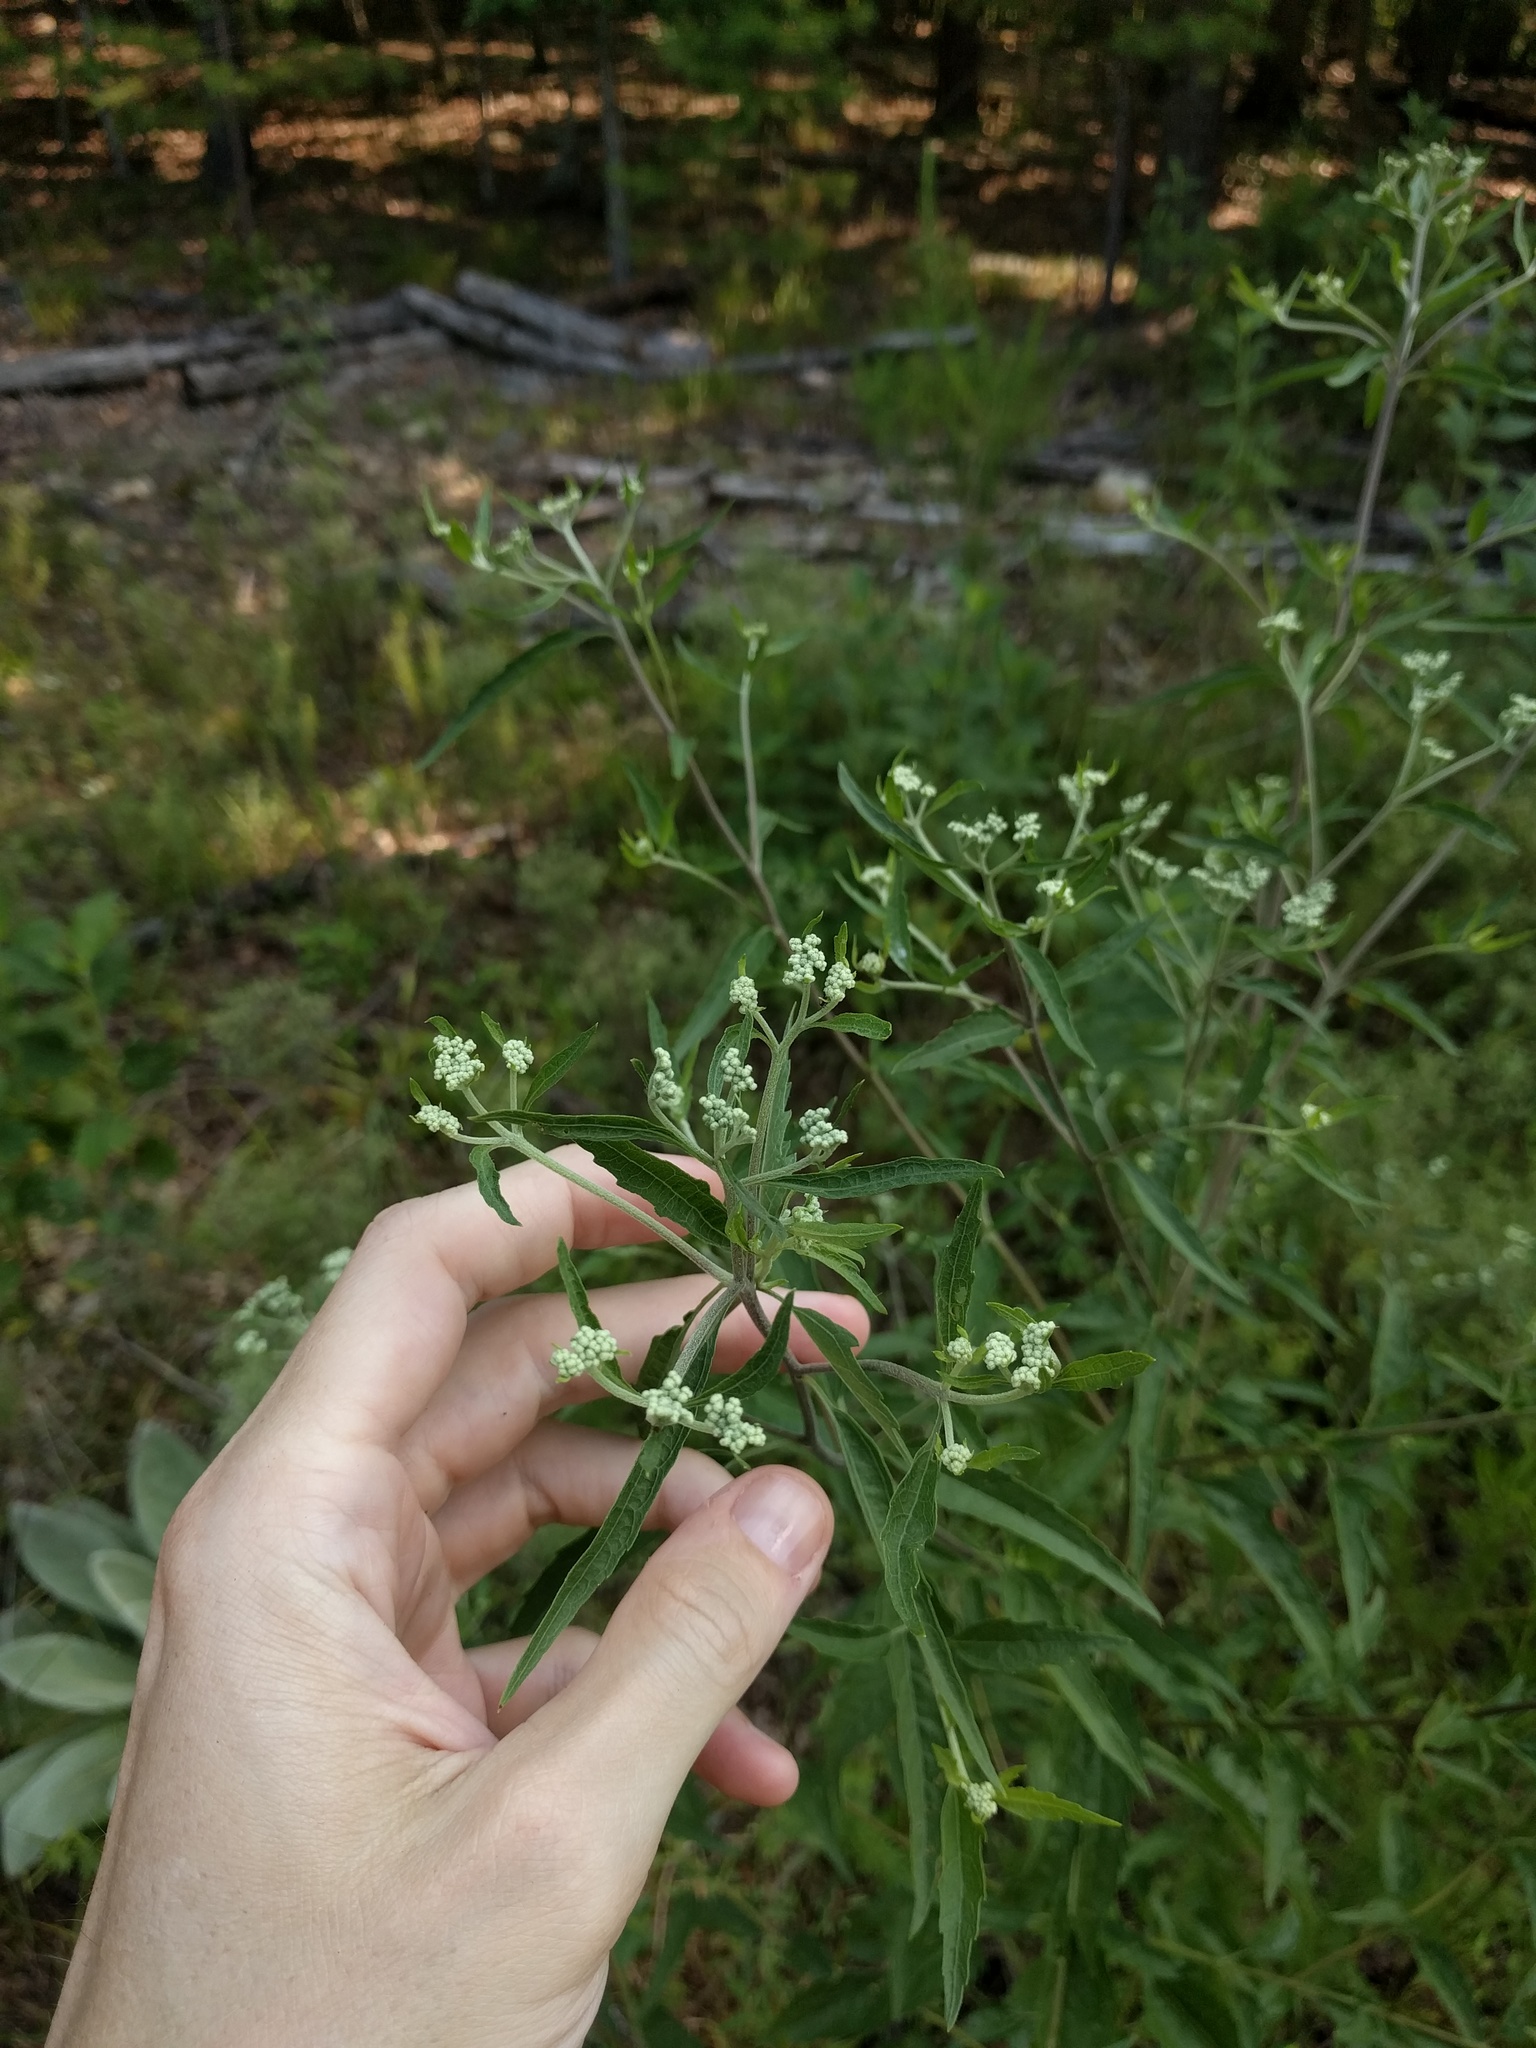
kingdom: Plantae
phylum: Tracheophyta
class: Magnoliopsida
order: Asterales
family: Asteraceae
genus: Eupatorium
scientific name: Eupatorium serotinum
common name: Late boneset
